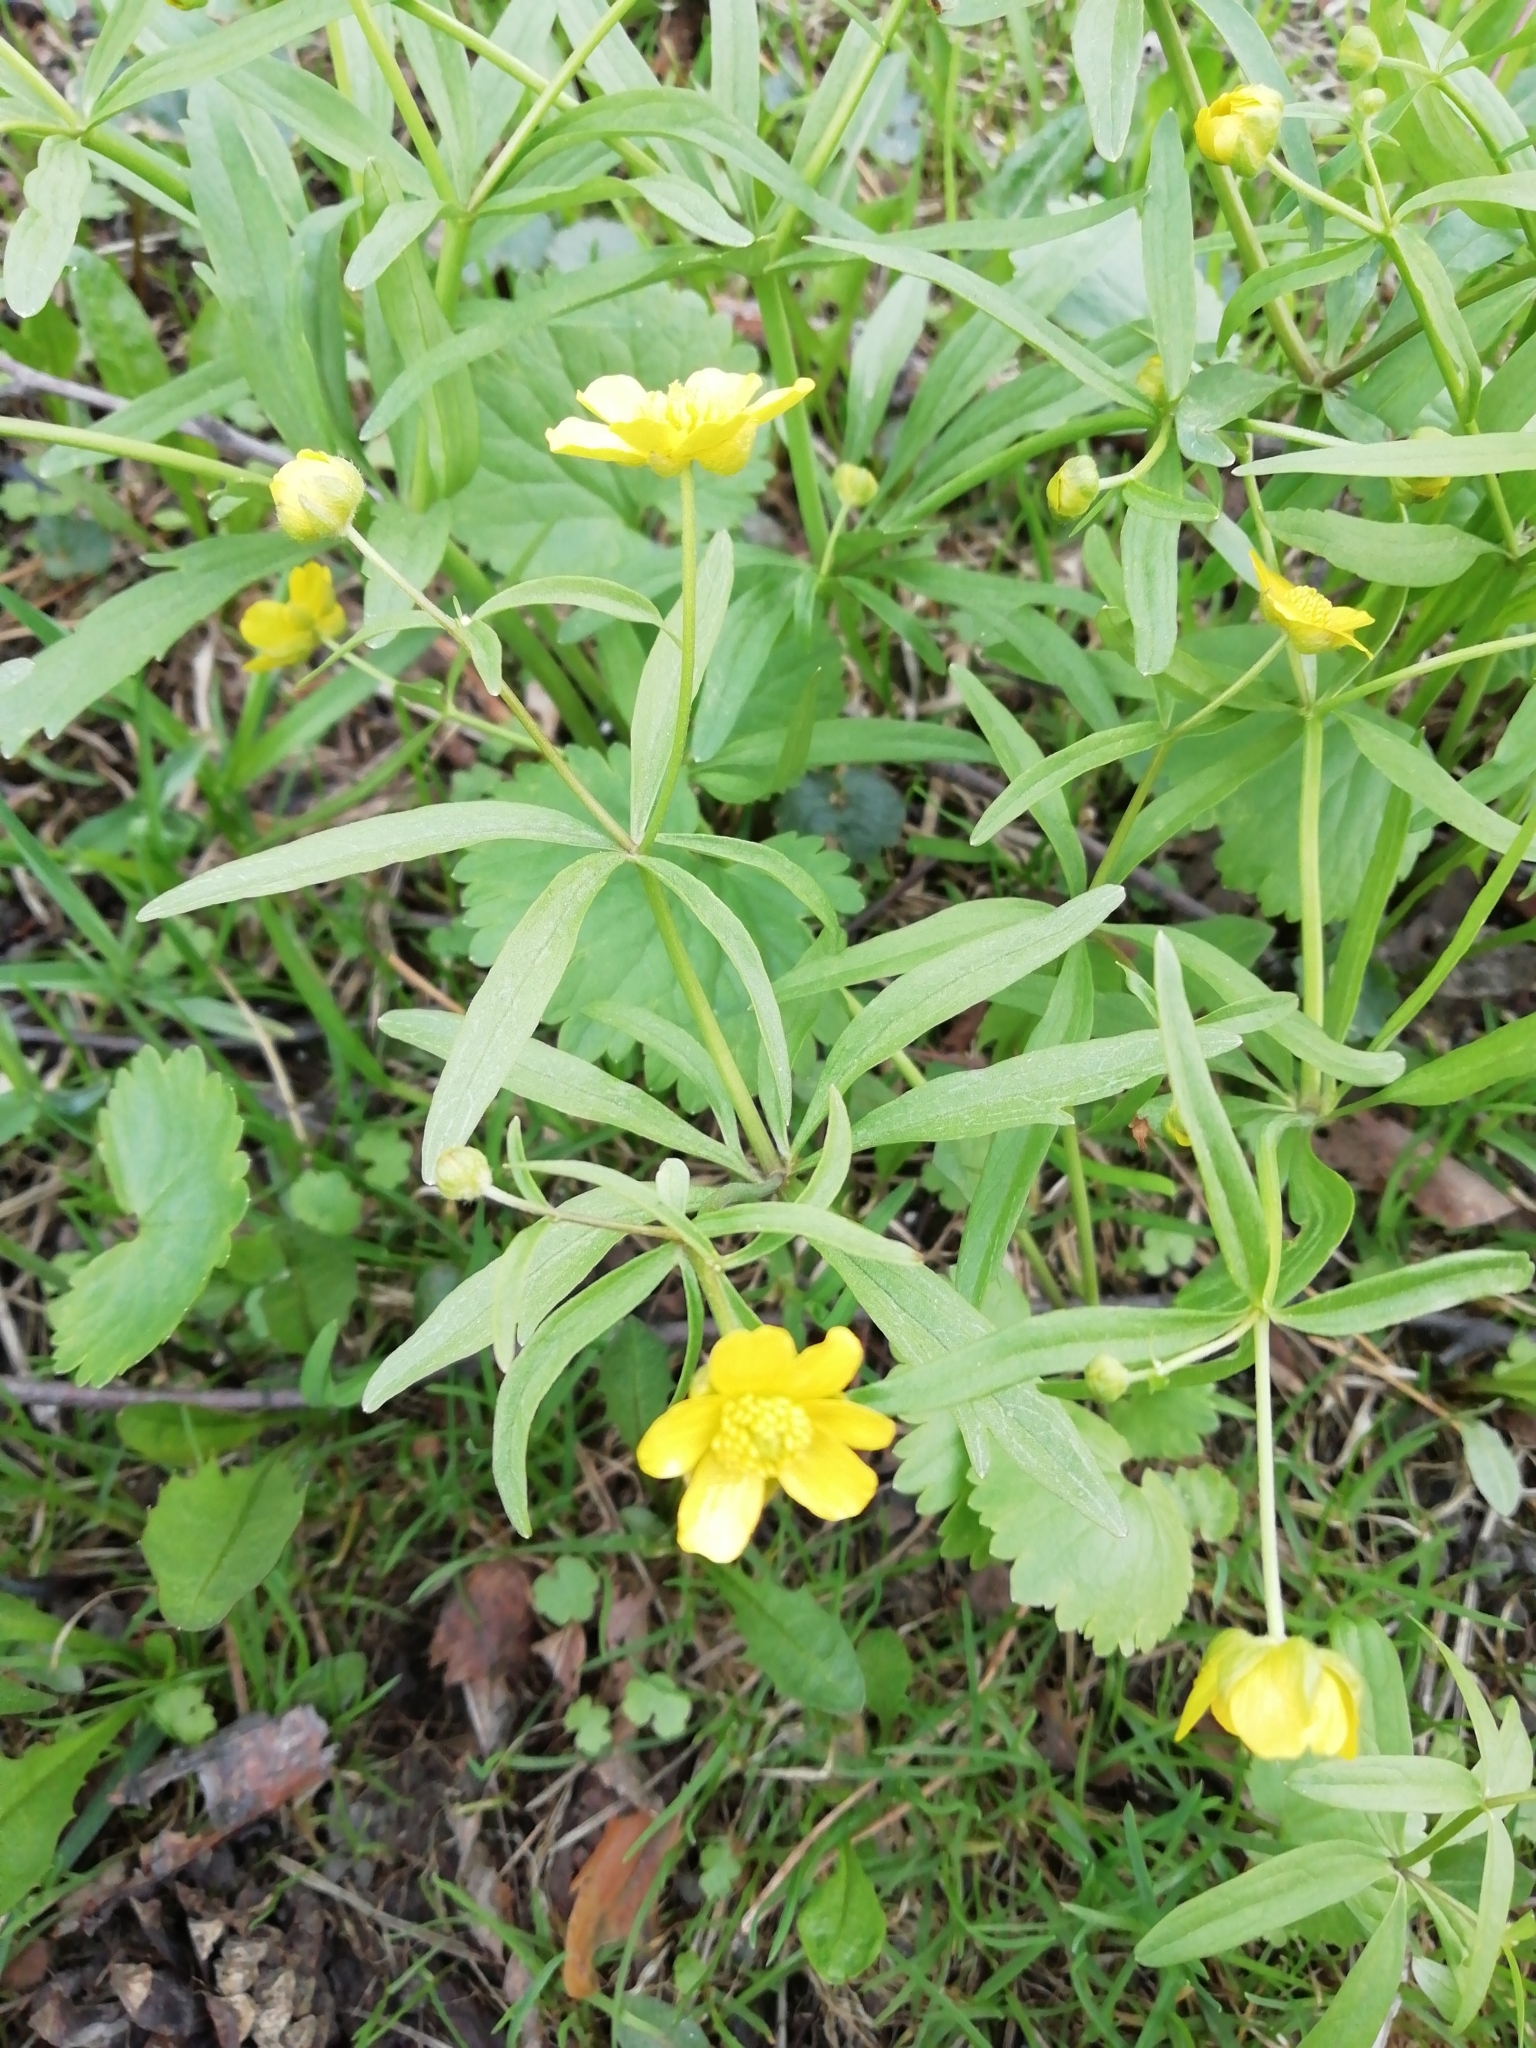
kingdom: Plantae
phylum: Tracheophyta
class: Magnoliopsida
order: Ranunculales
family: Ranunculaceae
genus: Ranunculus
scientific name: Ranunculus monophyllus
